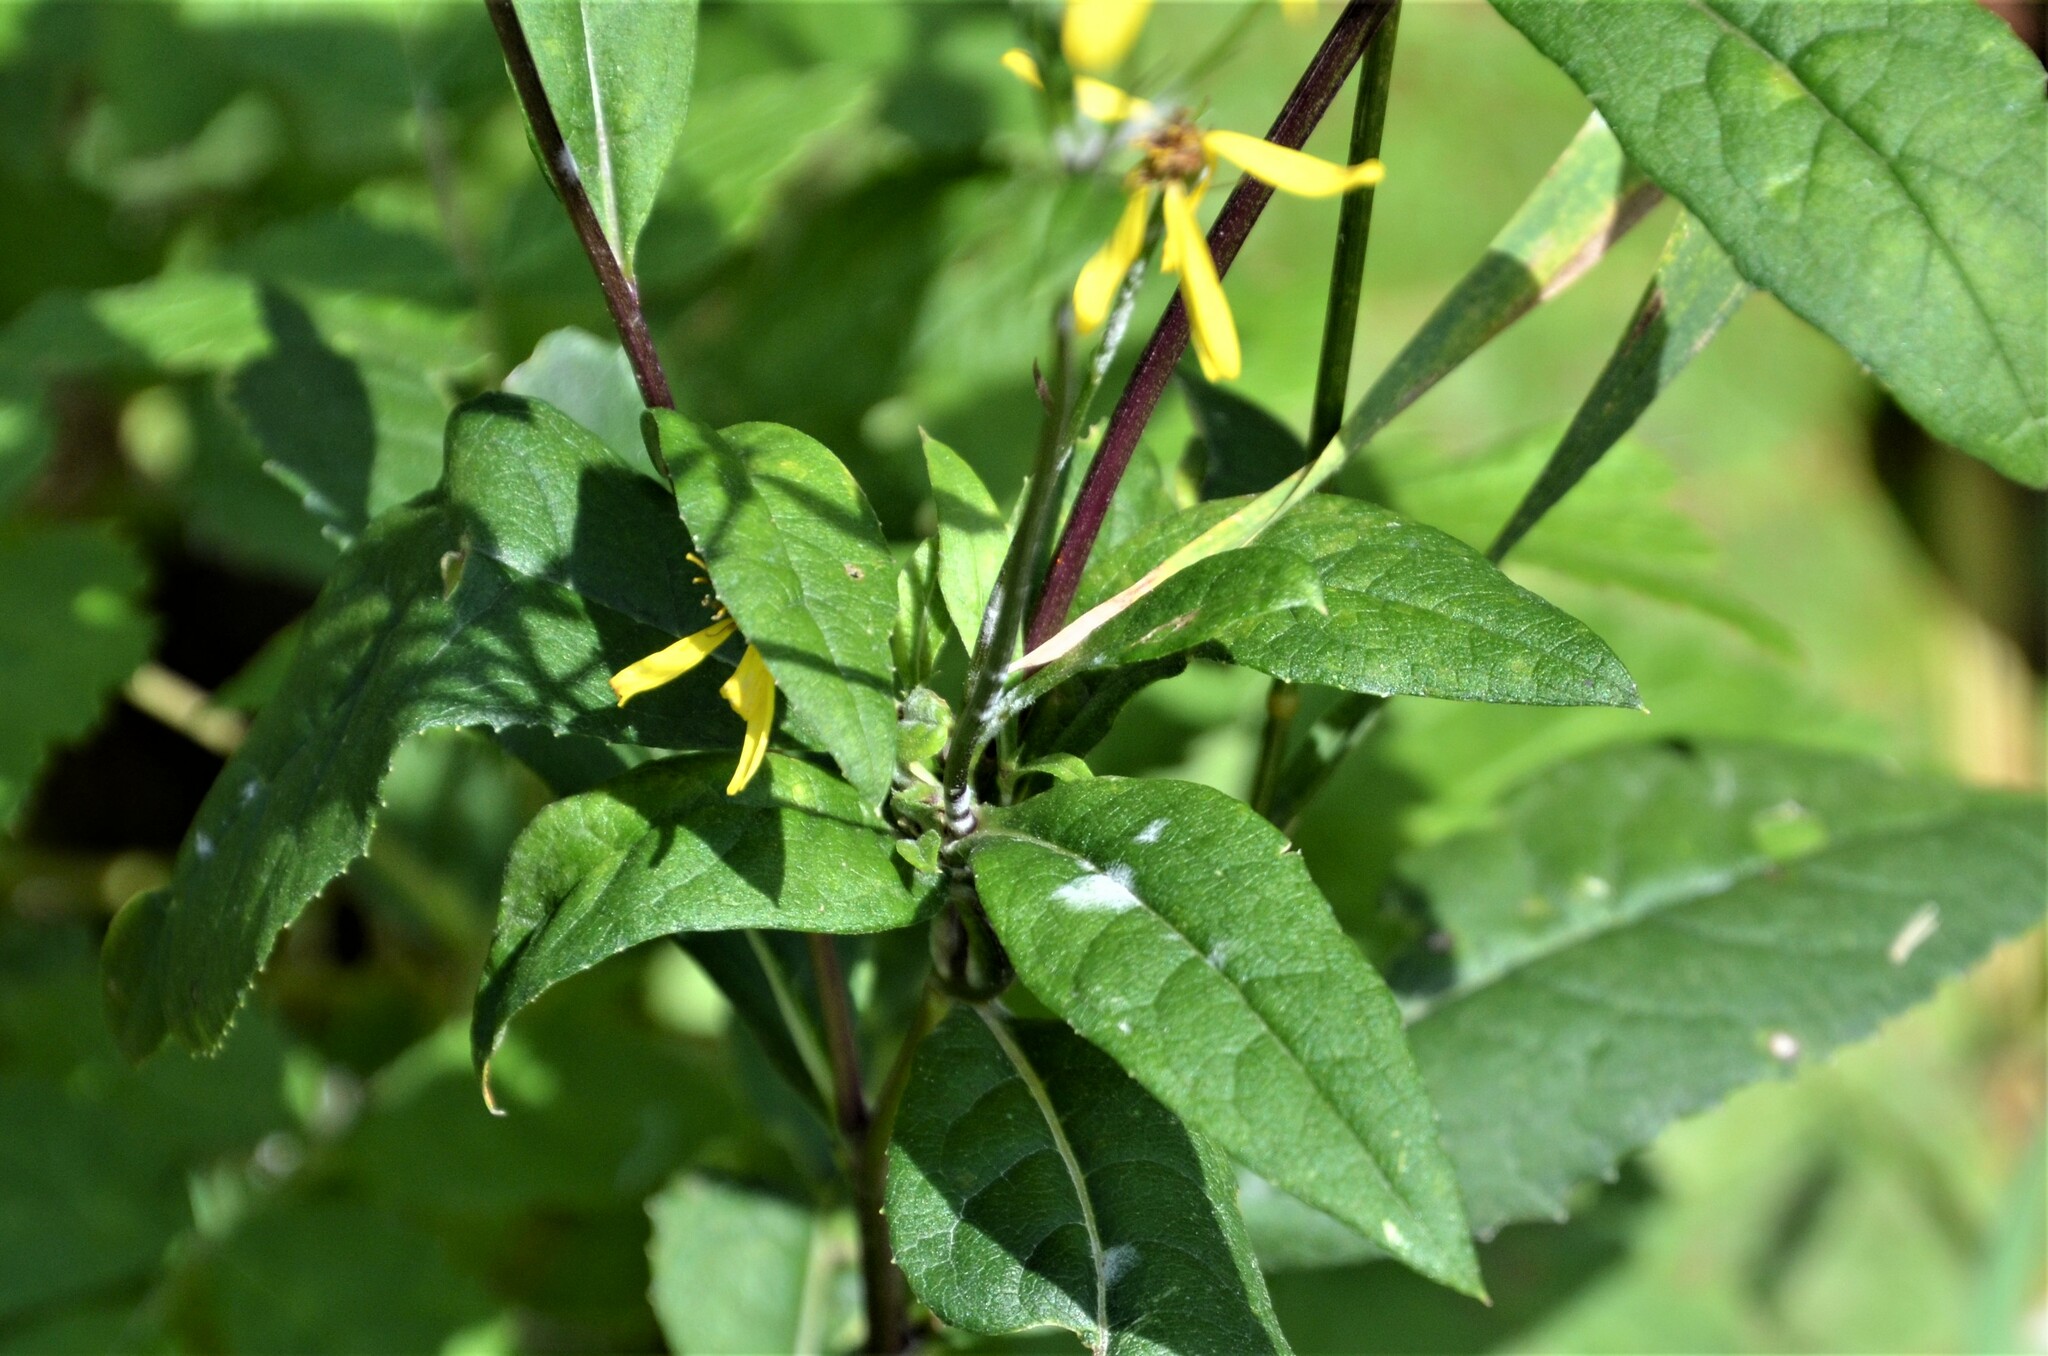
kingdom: Plantae
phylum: Tracheophyta
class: Magnoliopsida
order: Asterales
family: Asteraceae
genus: Senecio
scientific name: Senecio ovatus
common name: Wood ragwort
